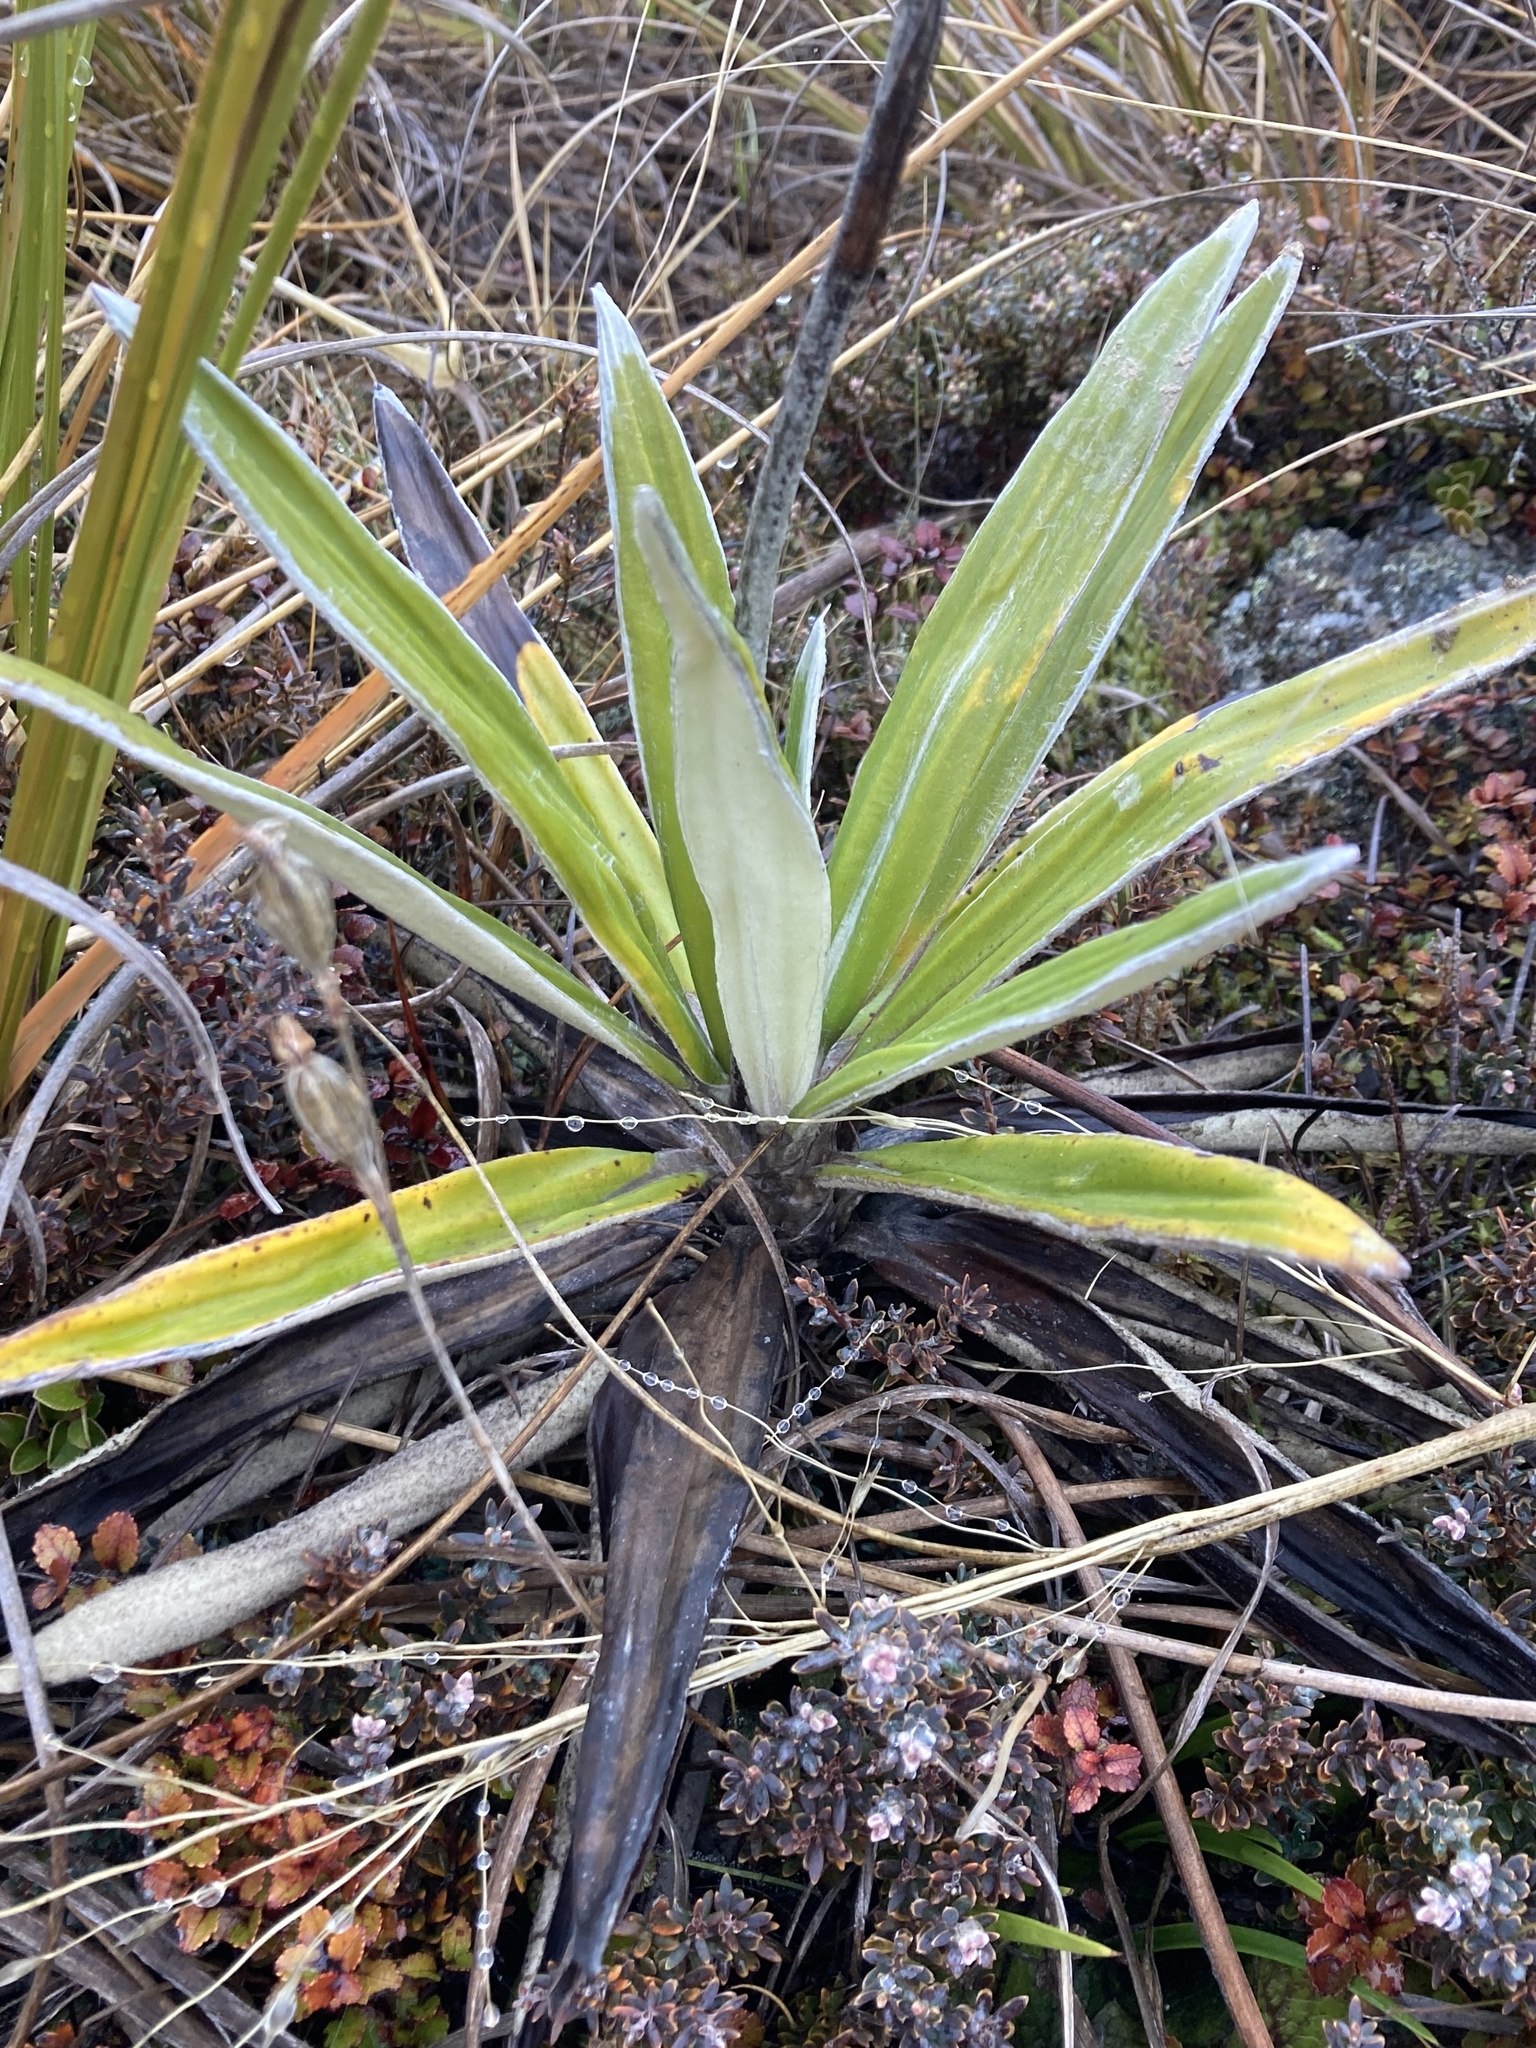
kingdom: Plantae
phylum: Tracheophyta
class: Magnoliopsida
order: Asterales
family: Asteraceae
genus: Celmisia
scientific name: Celmisia spectabilis
